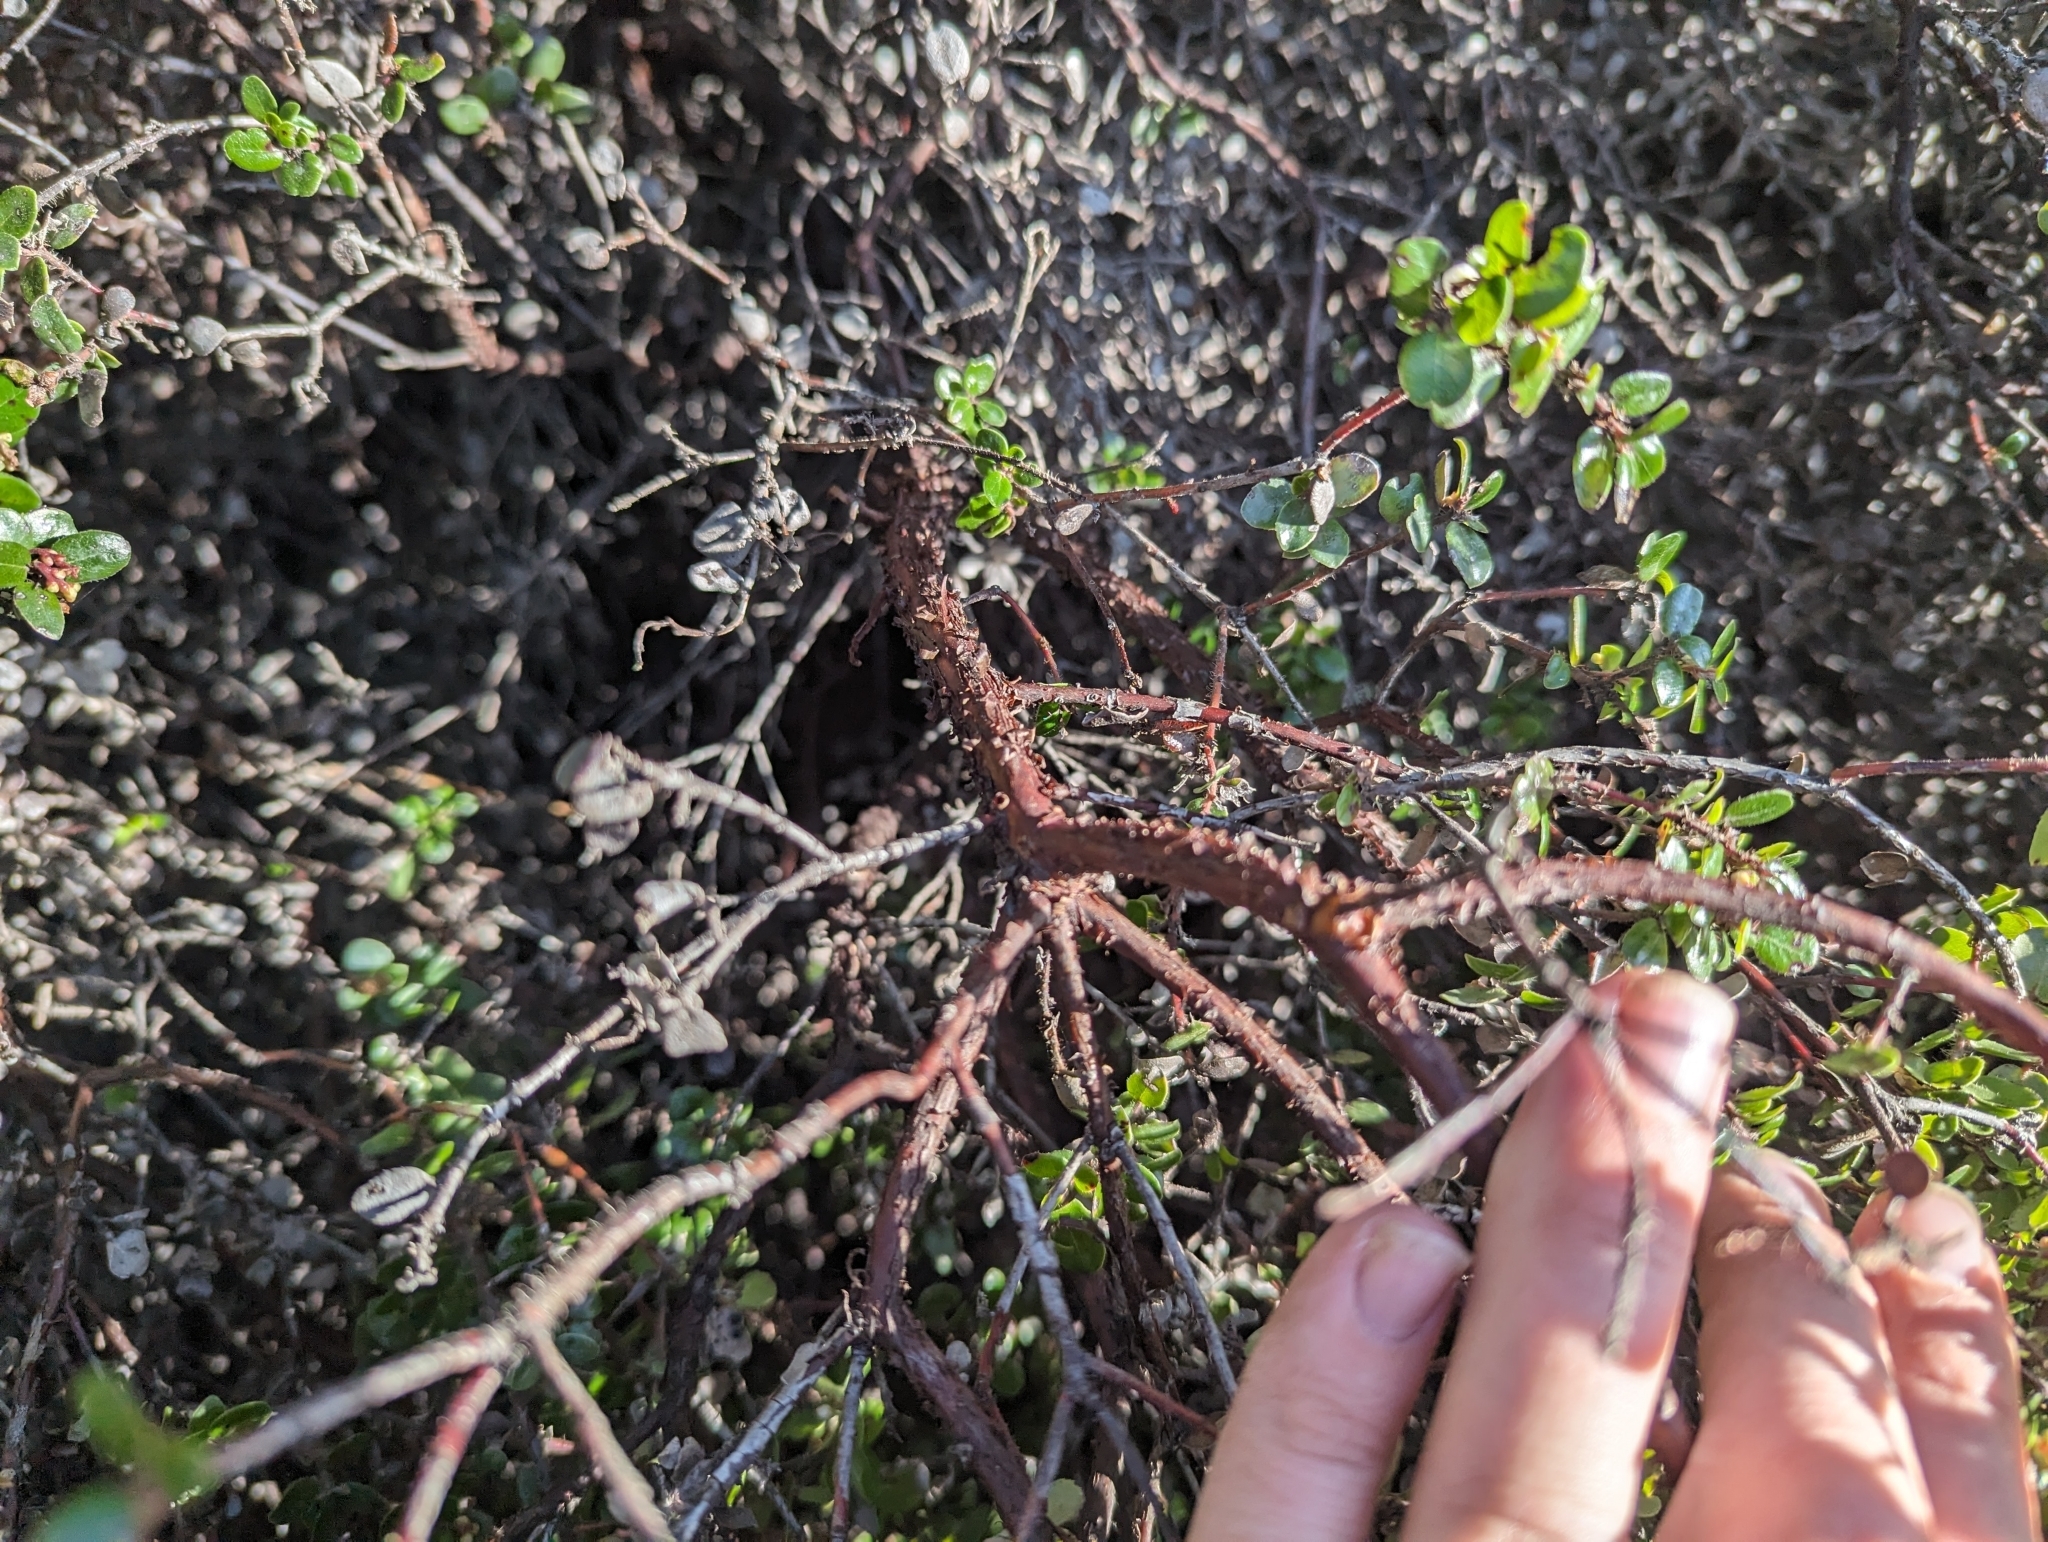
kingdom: Plantae
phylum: Tracheophyta
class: Magnoliopsida
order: Ericales
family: Ericaceae
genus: Arctostaphylos
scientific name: Arctostaphylos nummularia
